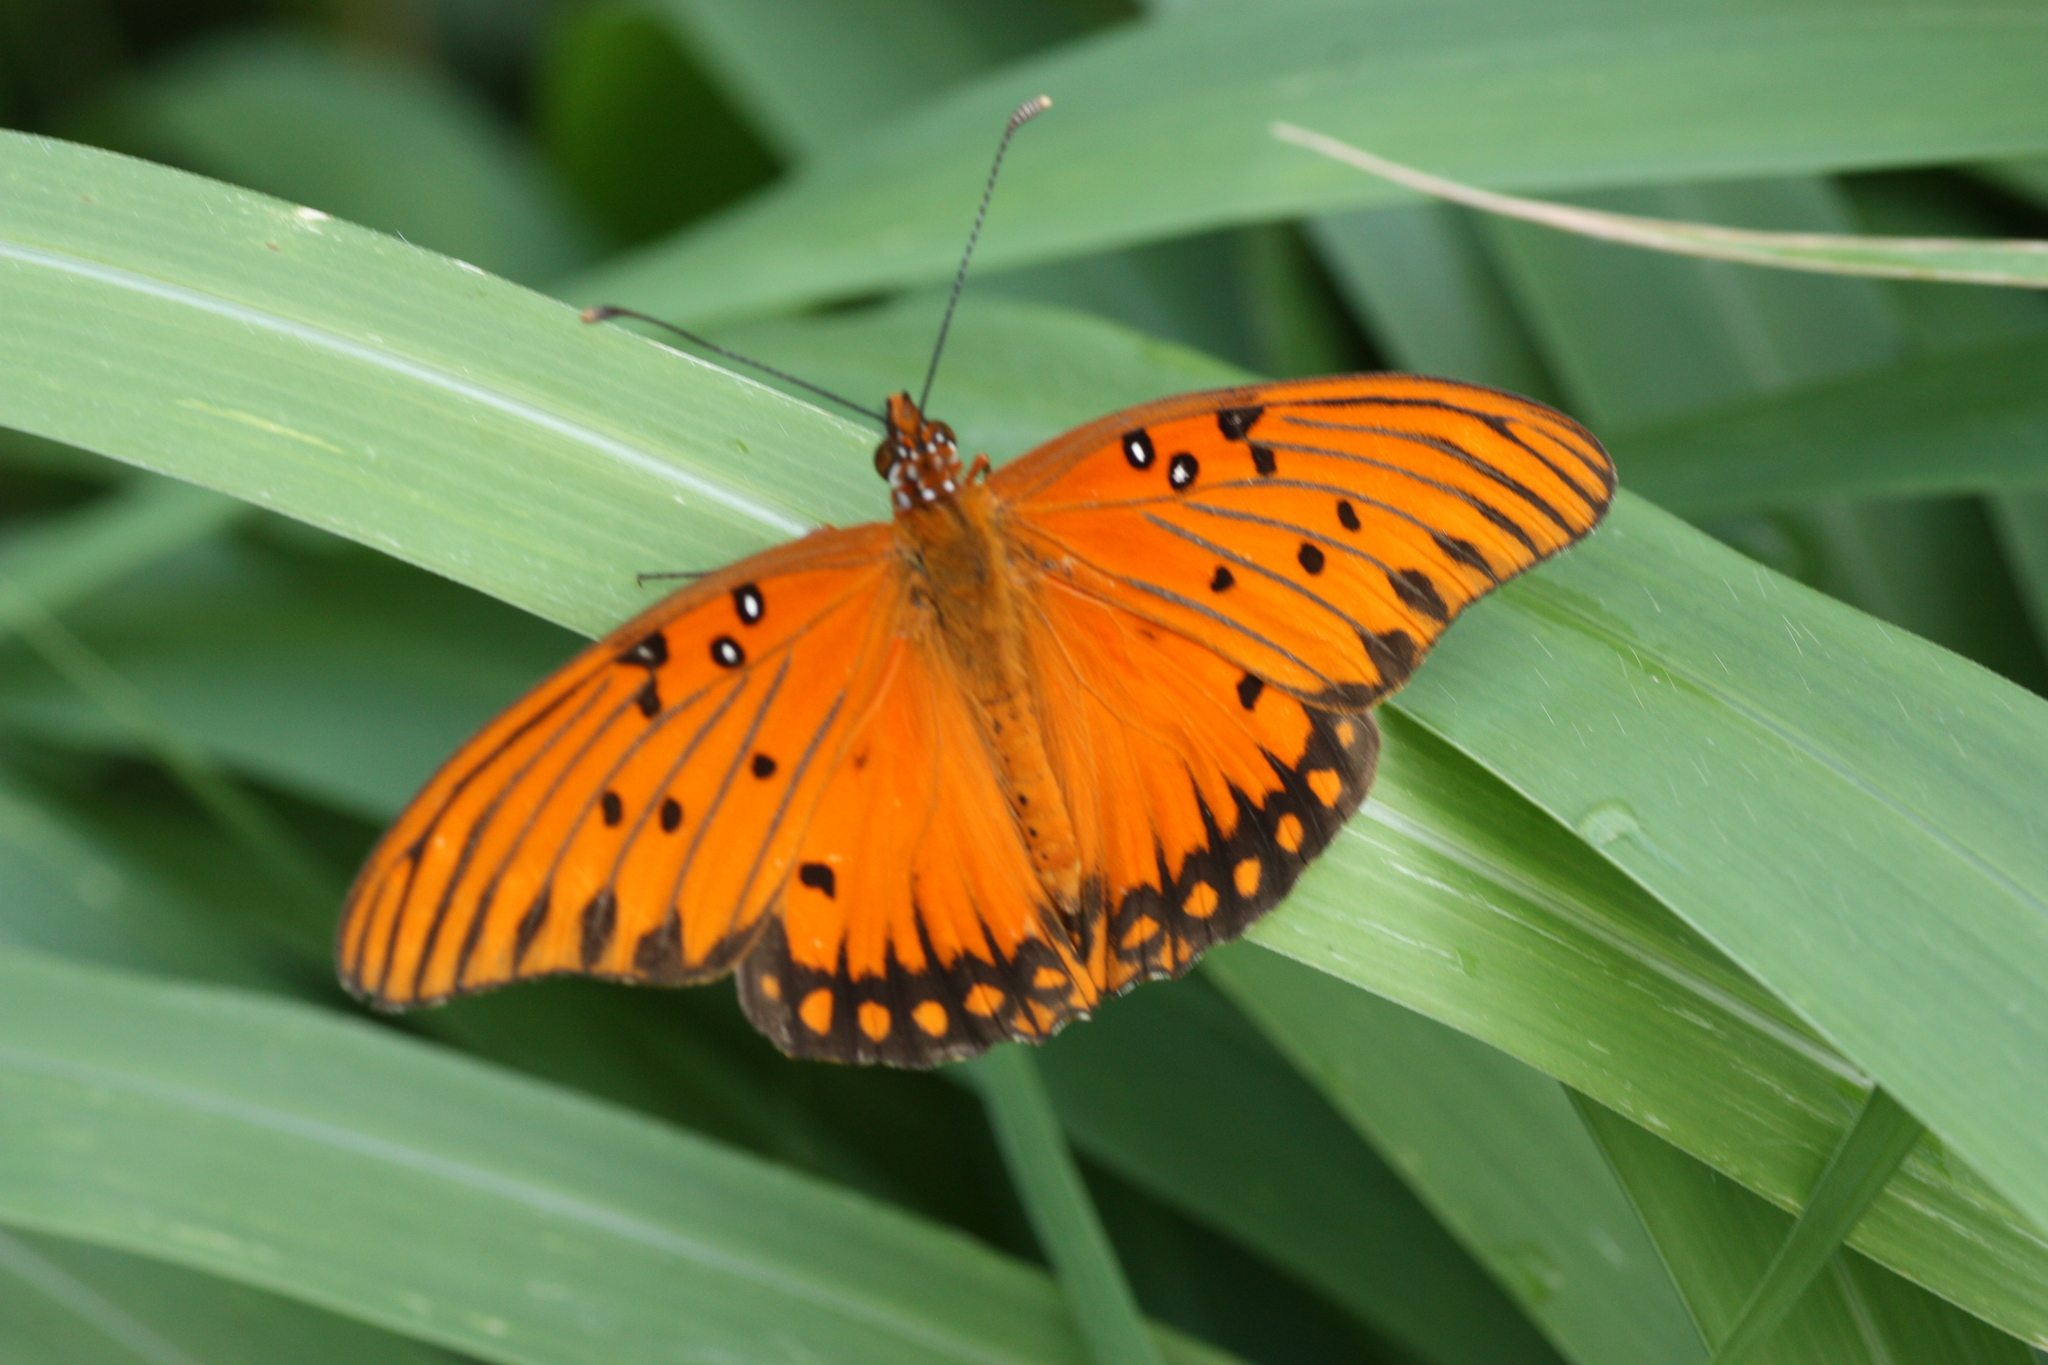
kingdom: Animalia
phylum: Arthropoda
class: Insecta
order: Lepidoptera
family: Nymphalidae
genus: Dione
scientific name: Dione vanillae
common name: Gulf fritillary
